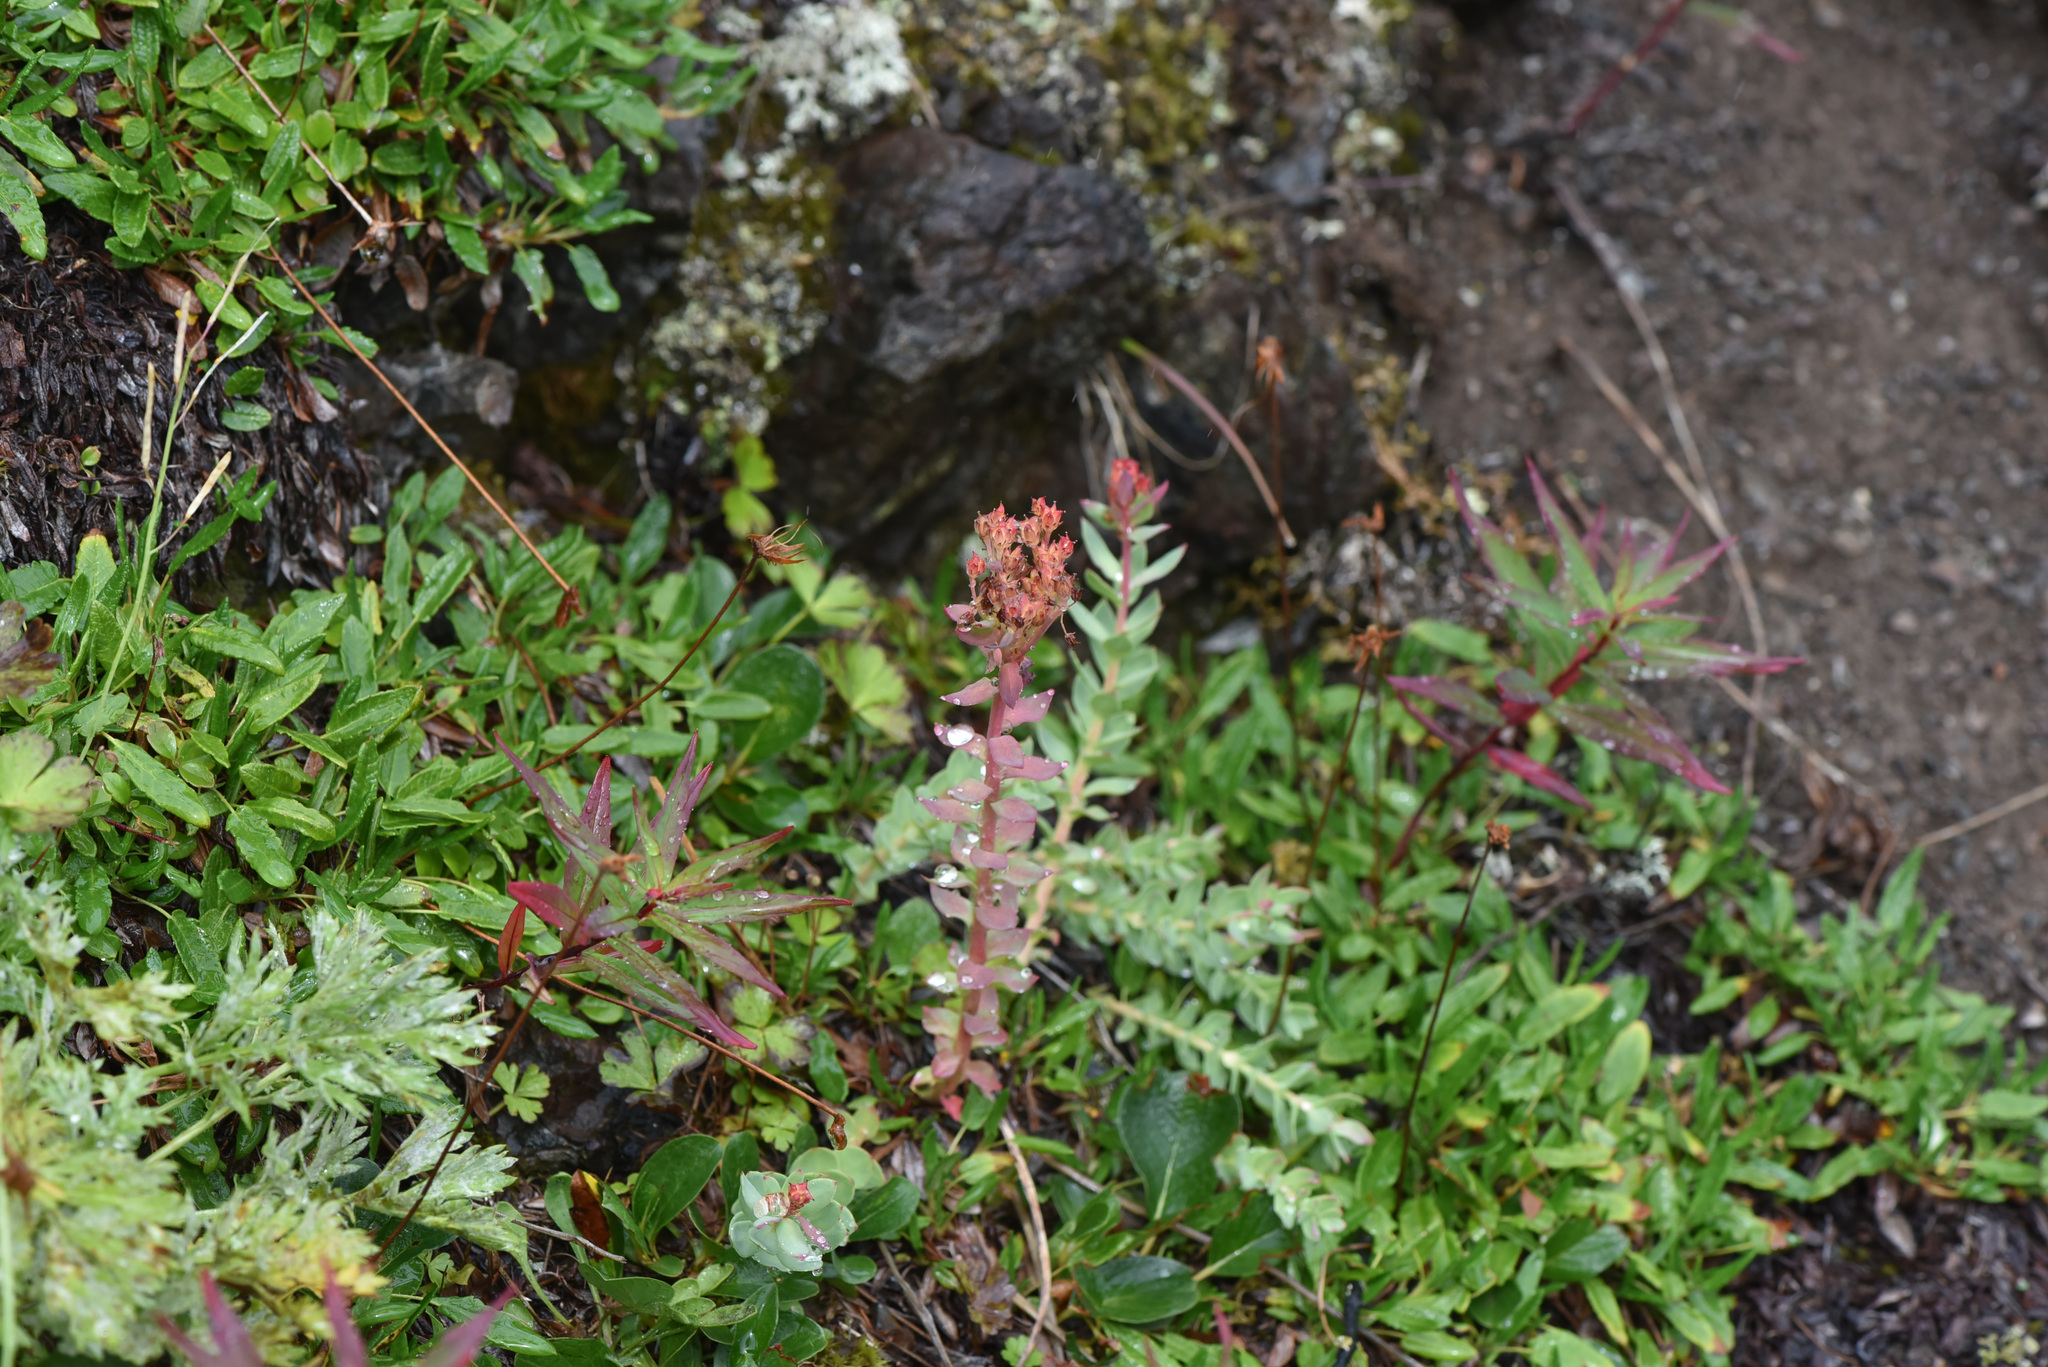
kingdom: Plantae
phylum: Tracheophyta
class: Magnoliopsida
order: Saxifragales
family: Crassulaceae
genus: Rhodiola
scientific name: Rhodiola integrifolia
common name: Western roseroot
